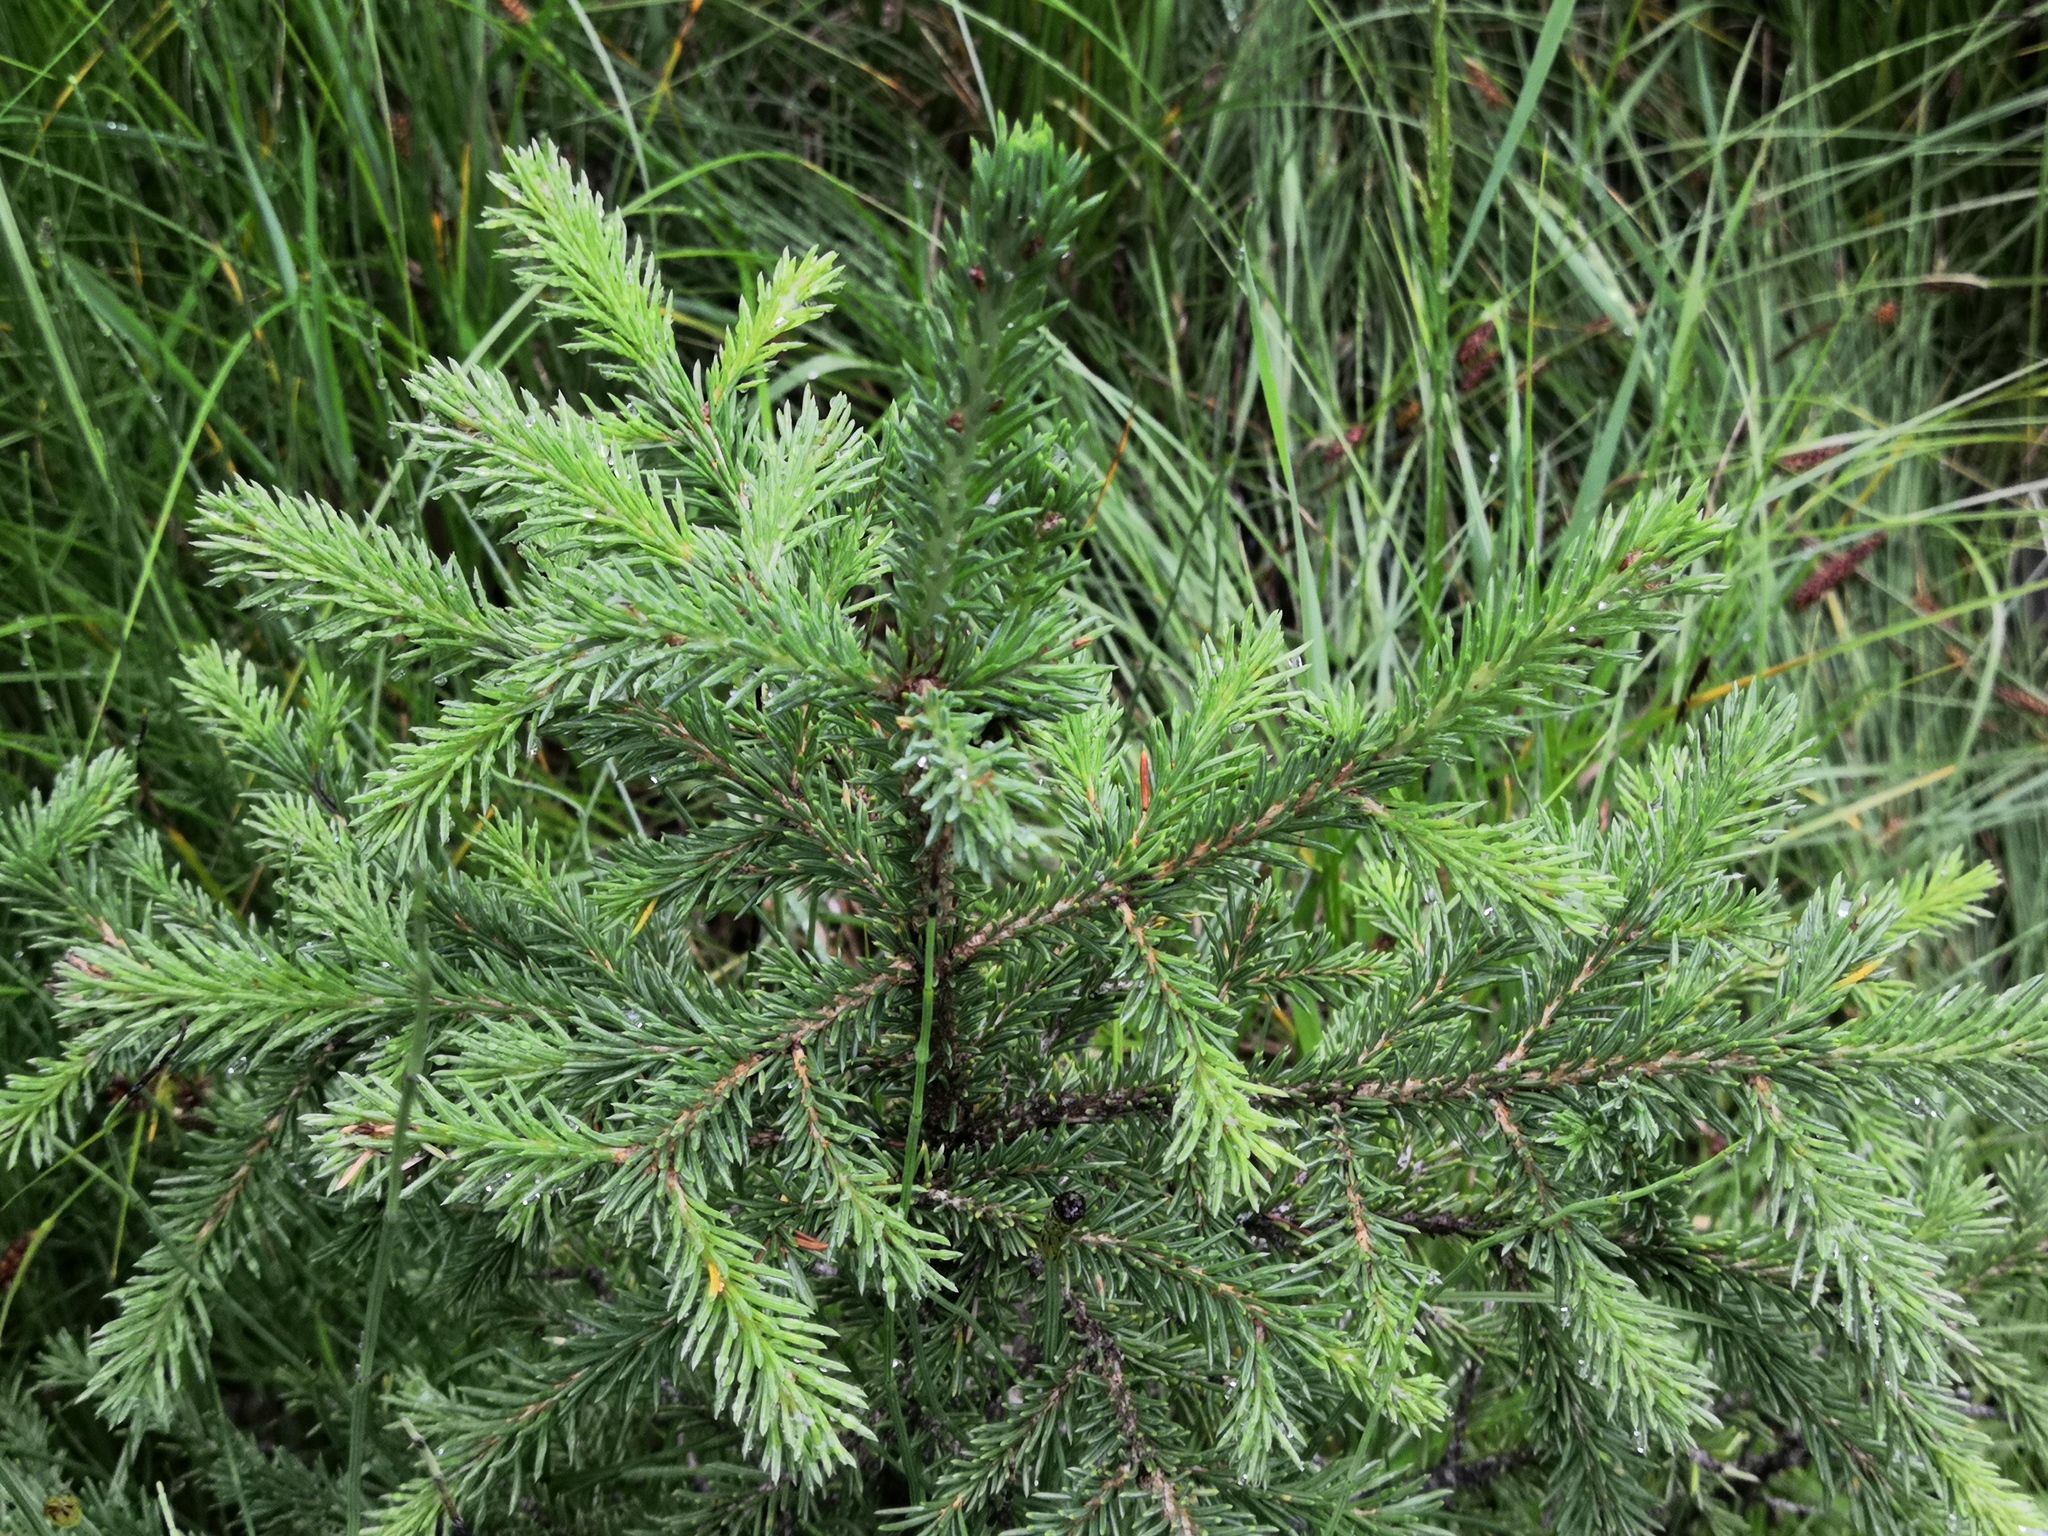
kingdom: Plantae
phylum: Tracheophyta
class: Pinopsida
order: Pinales
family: Pinaceae
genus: Picea
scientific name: Picea obovata
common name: Siberian spruce
